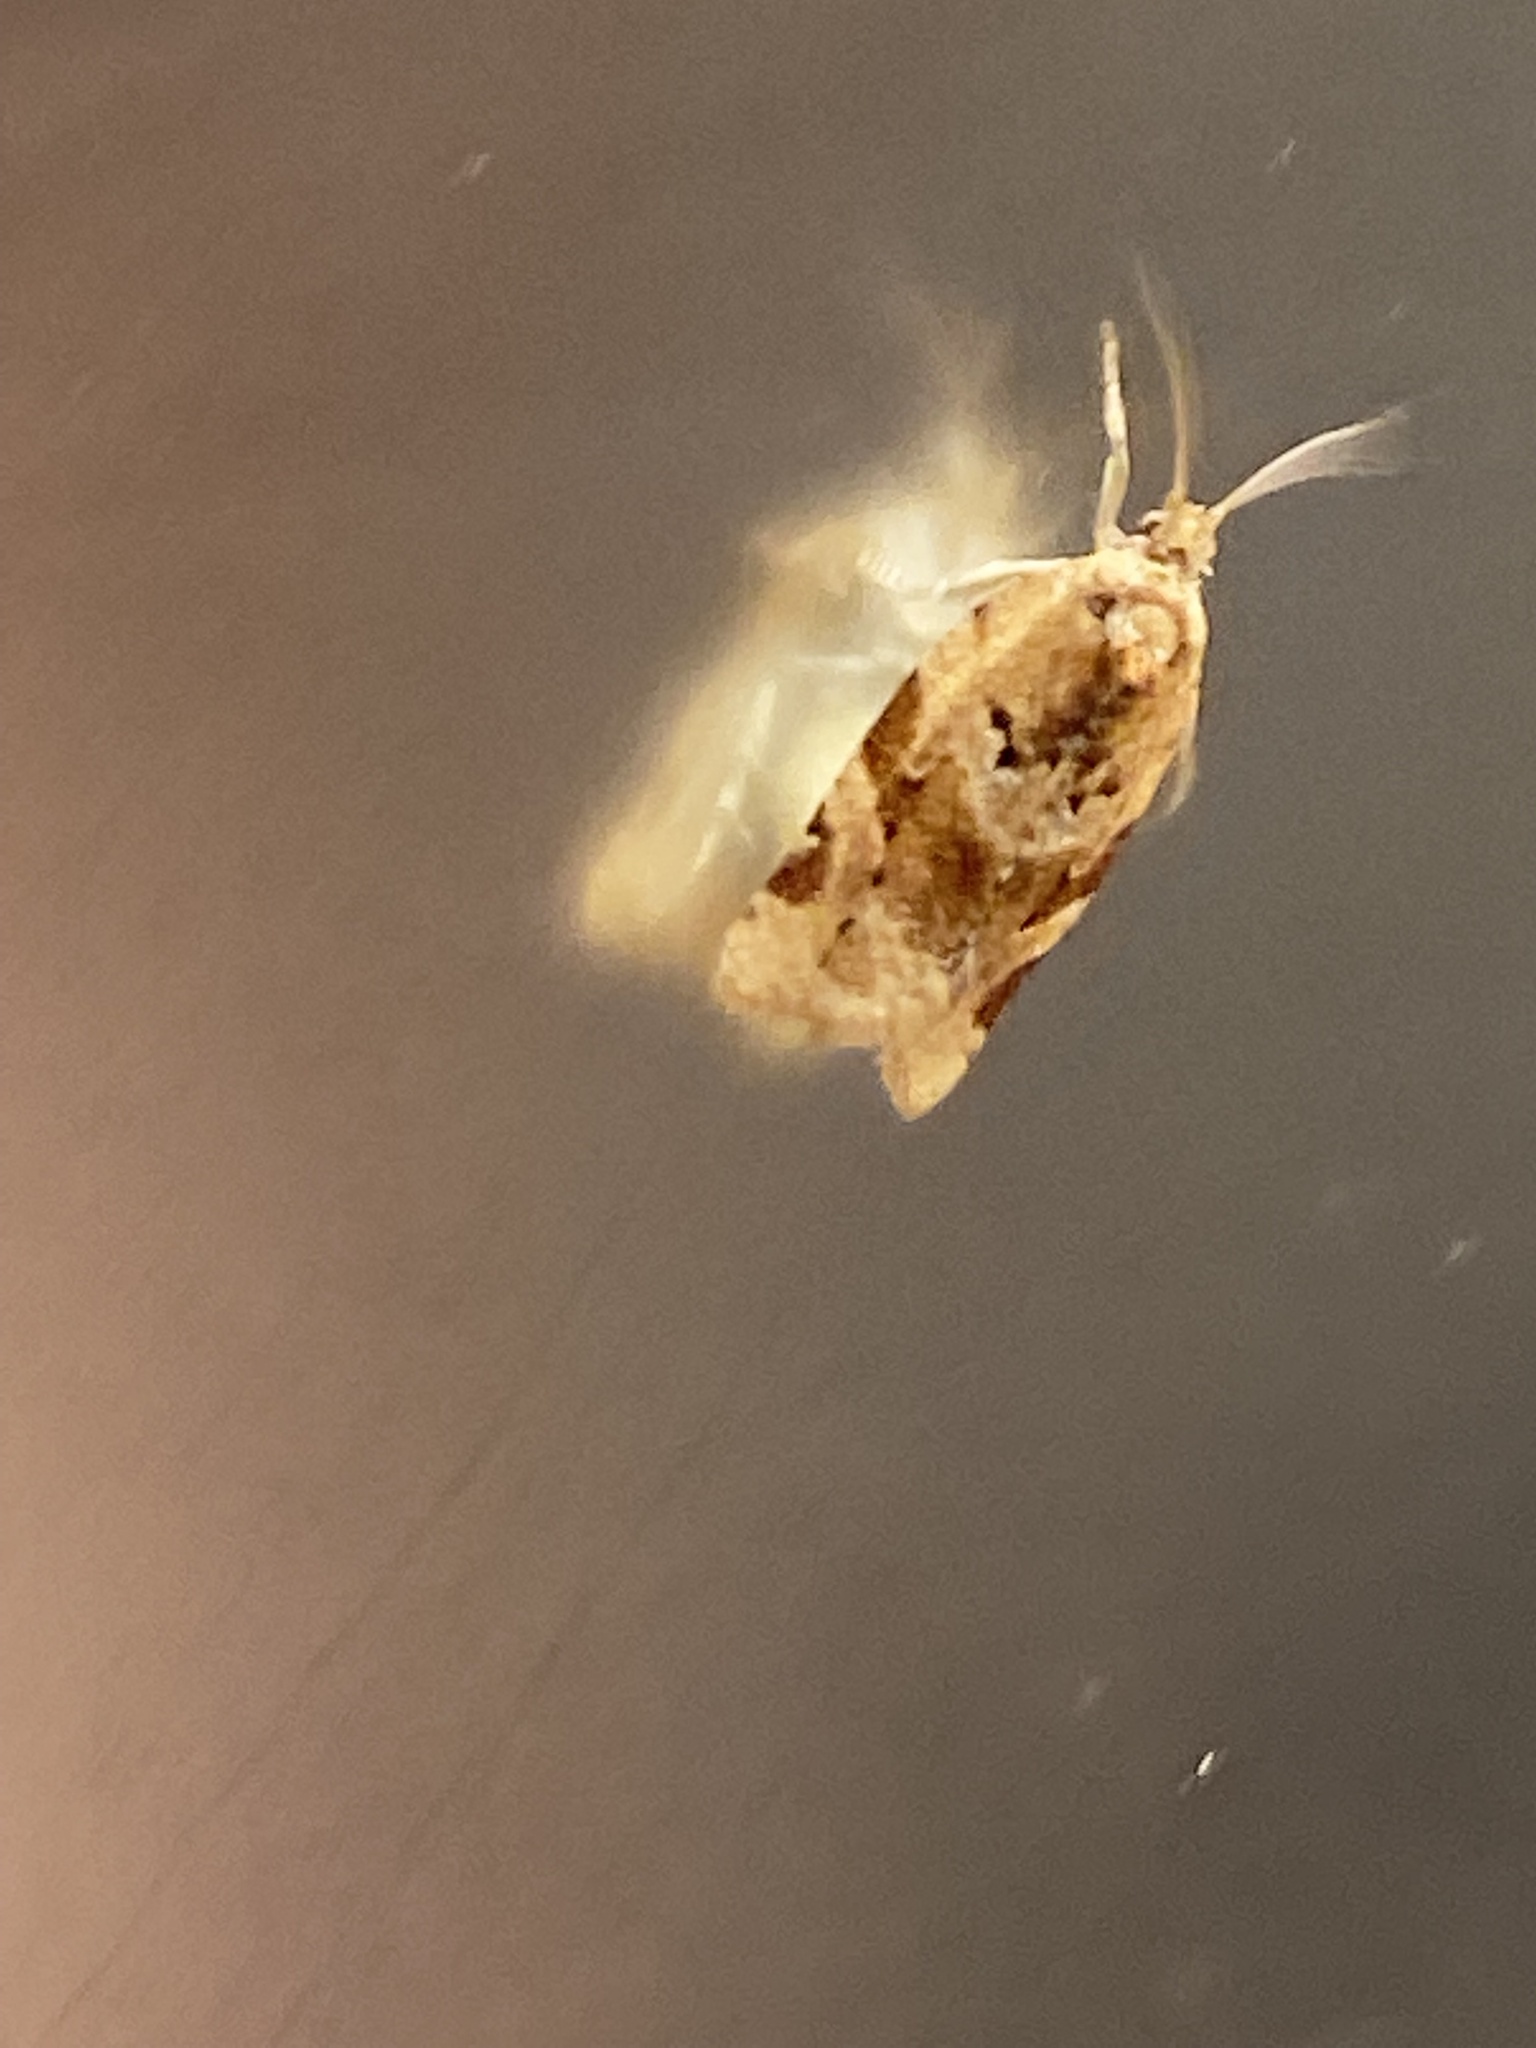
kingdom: Animalia
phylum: Arthropoda
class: Insecta
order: Lepidoptera
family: Tortricidae
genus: Argyrotaenia
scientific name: Argyrotaenia ljungiana
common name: Heather twist
